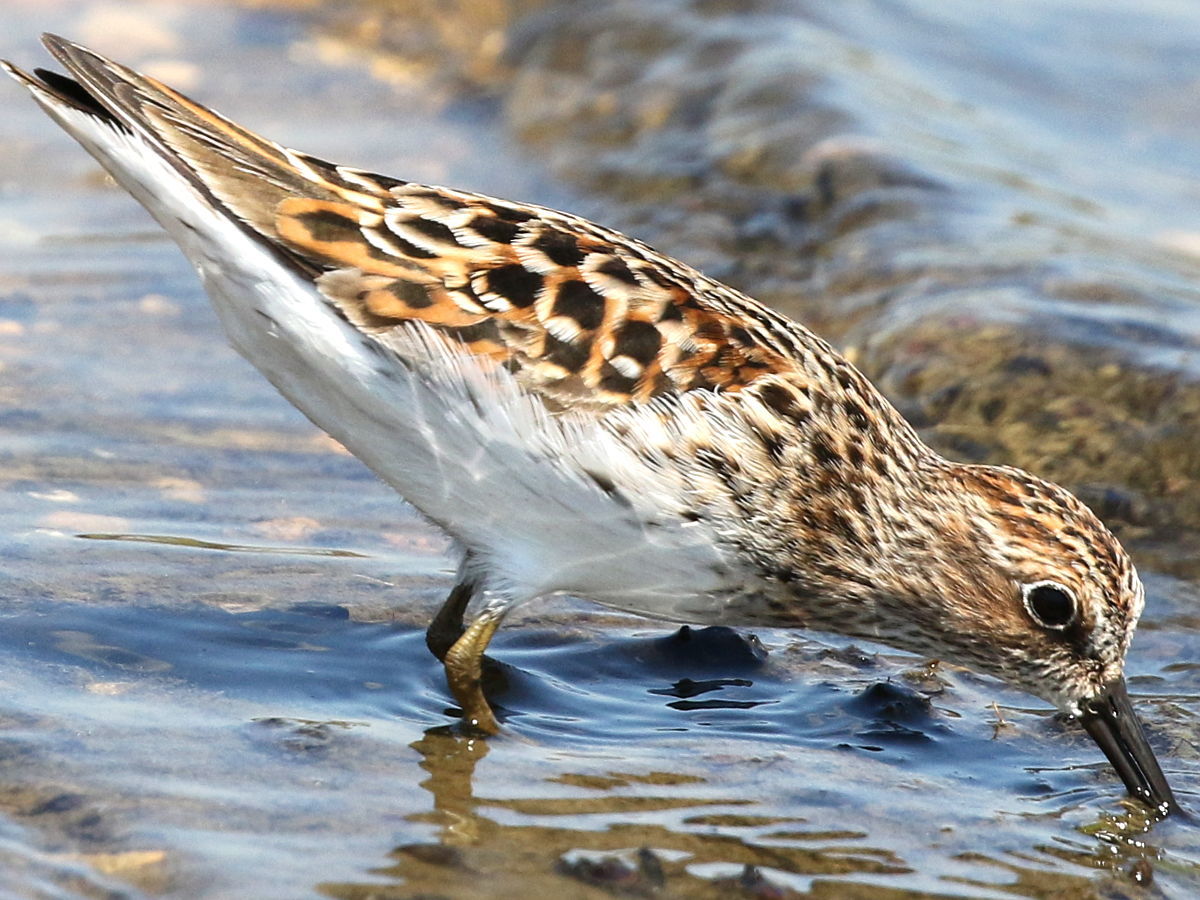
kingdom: Animalia
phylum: Chordata
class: Aves
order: Charadriiformes
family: Scolopacidae
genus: Calidris
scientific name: Calidris minutilla
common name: Least sandpiper
